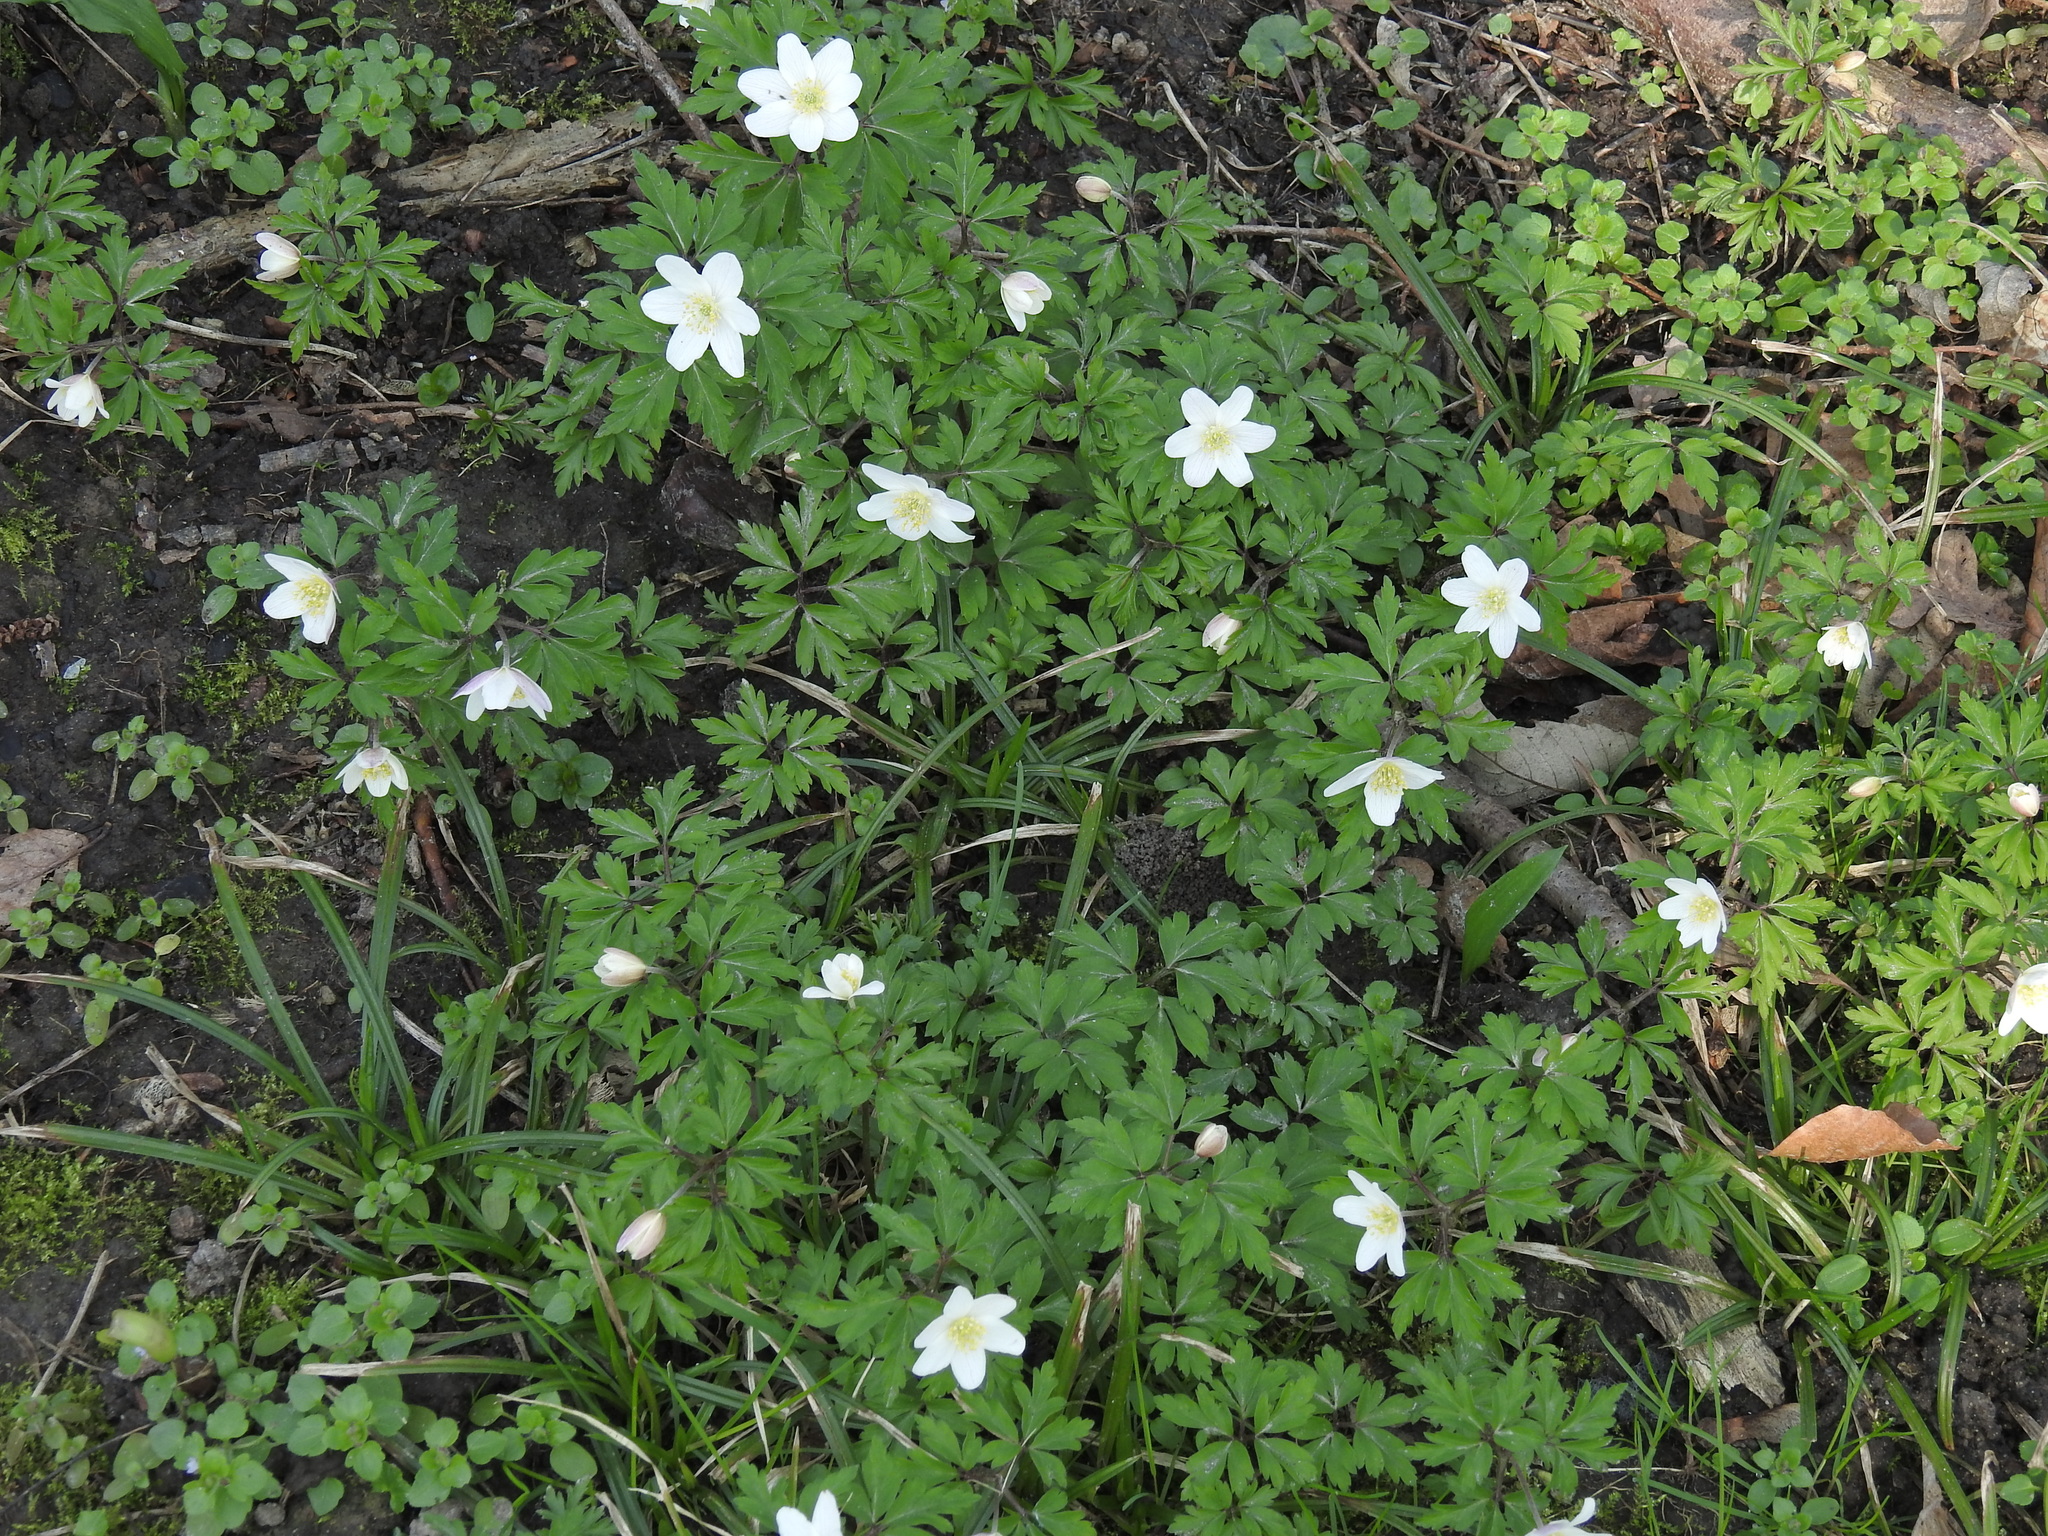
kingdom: Plantae
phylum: Tracheophyta
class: Magnoliopsida
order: Ranunculales
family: Ranunculaceae
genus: Anemone
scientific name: Anemone nemorosa
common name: Wood anemone
